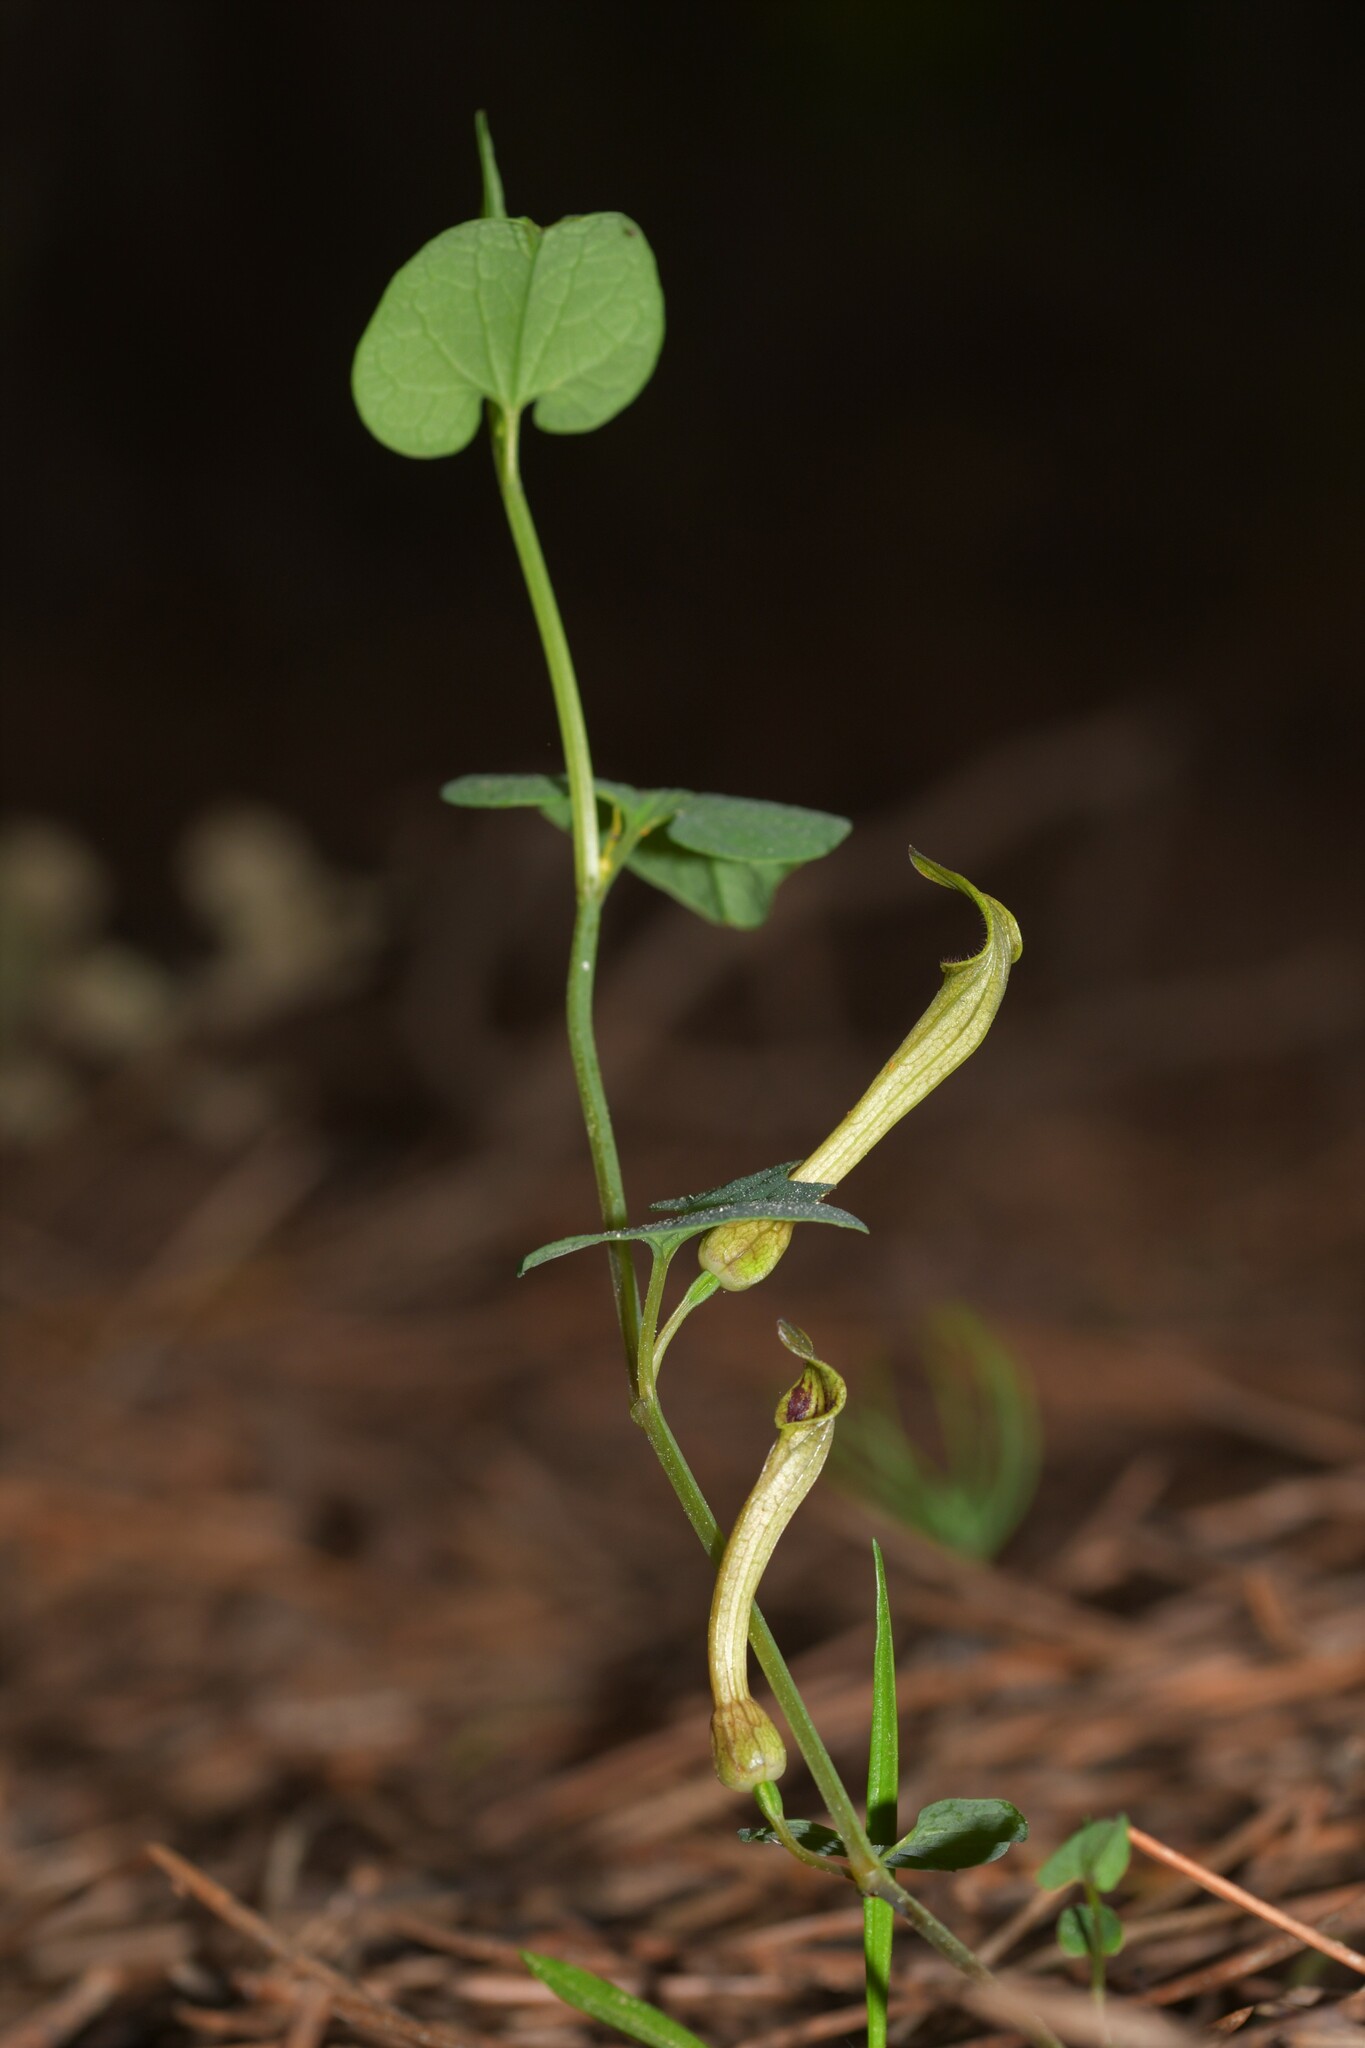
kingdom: Plantae
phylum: Tracheophyta
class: Magnoliopsida
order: Piperales
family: Aristolochiaceae
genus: Aristolochia
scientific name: Aristolochia paucinervis
